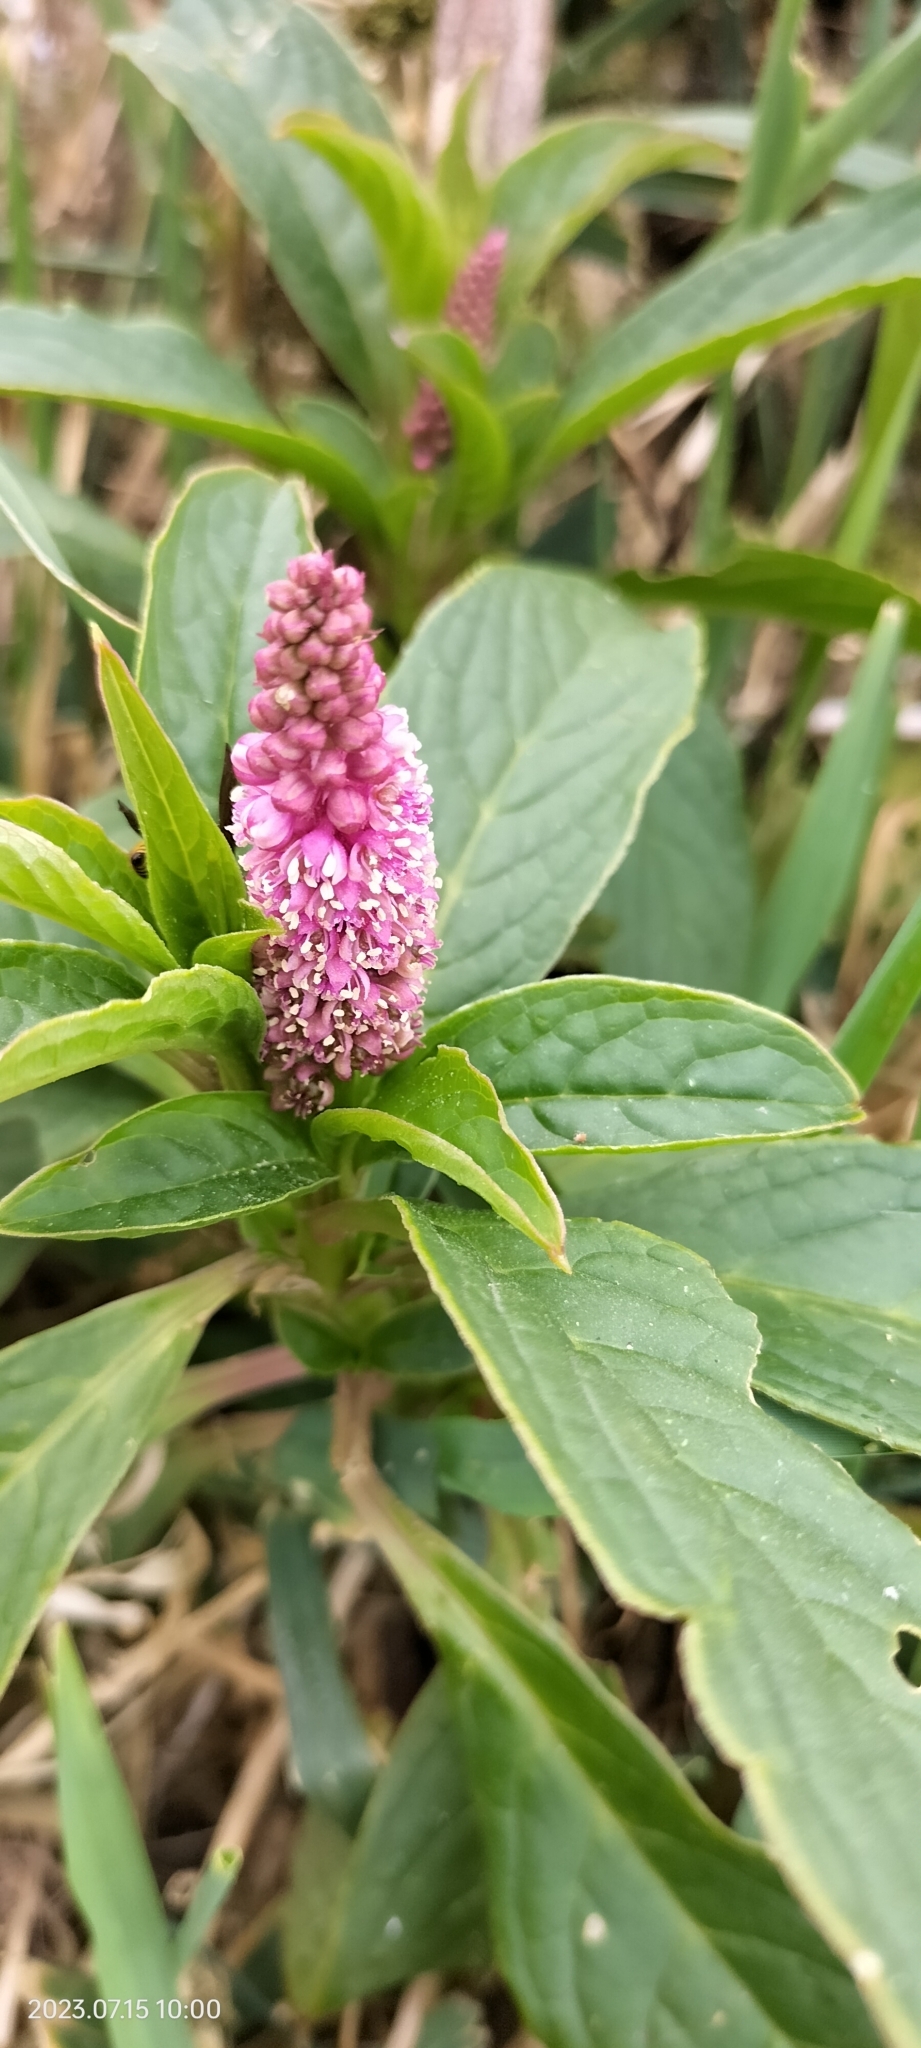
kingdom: Plantae
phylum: Tracheophyta
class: Magnoliopsida
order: Caryophyllales
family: Phytolaccaceae
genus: Phytolacca
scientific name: Phytolacca bogotensis
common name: Southern pokeweed
